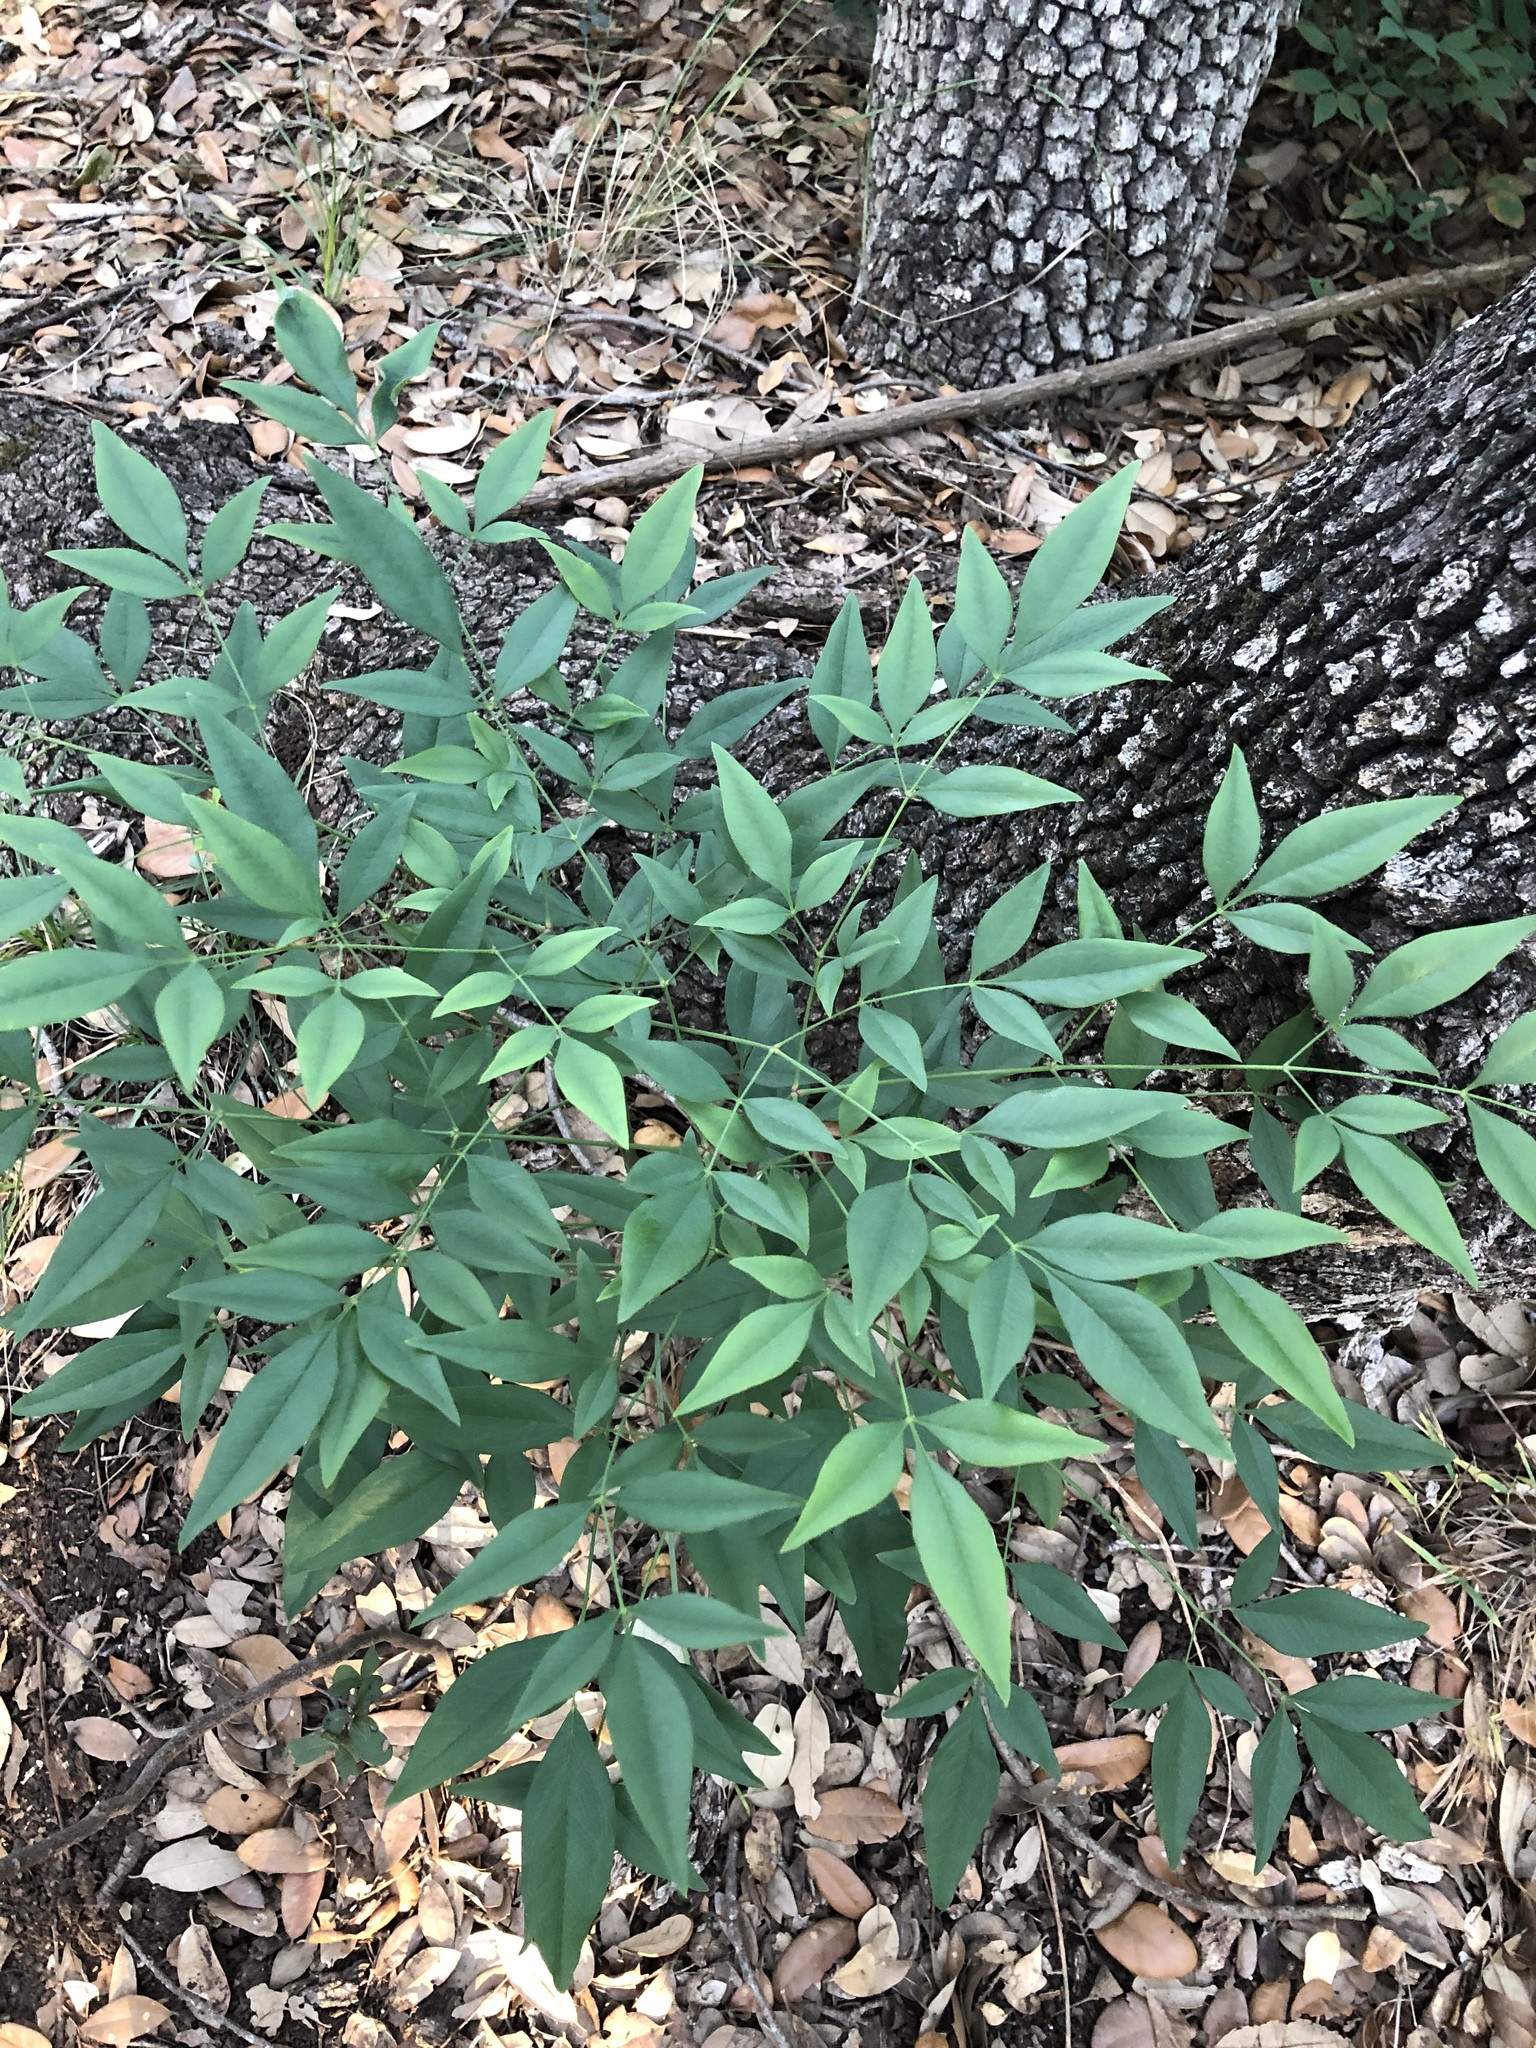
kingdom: Plantae
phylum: Tracheophyta
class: Magnoliopsida
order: Ranunculales
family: Berberidaceae
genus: Nandina
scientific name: Nandina domestica
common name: Sacred bamboo
